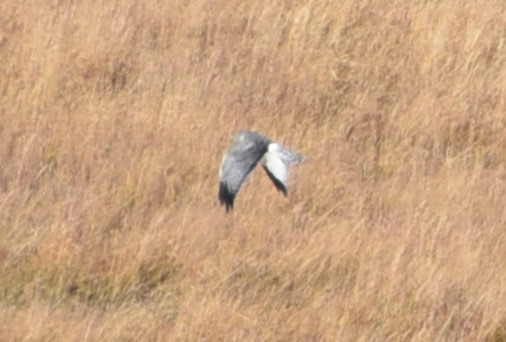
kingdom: Animalia
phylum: Chordata
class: Aves
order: Accipitriformes
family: Accipitridae
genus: Circus
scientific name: Circus cyaneus
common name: Hen harrier
